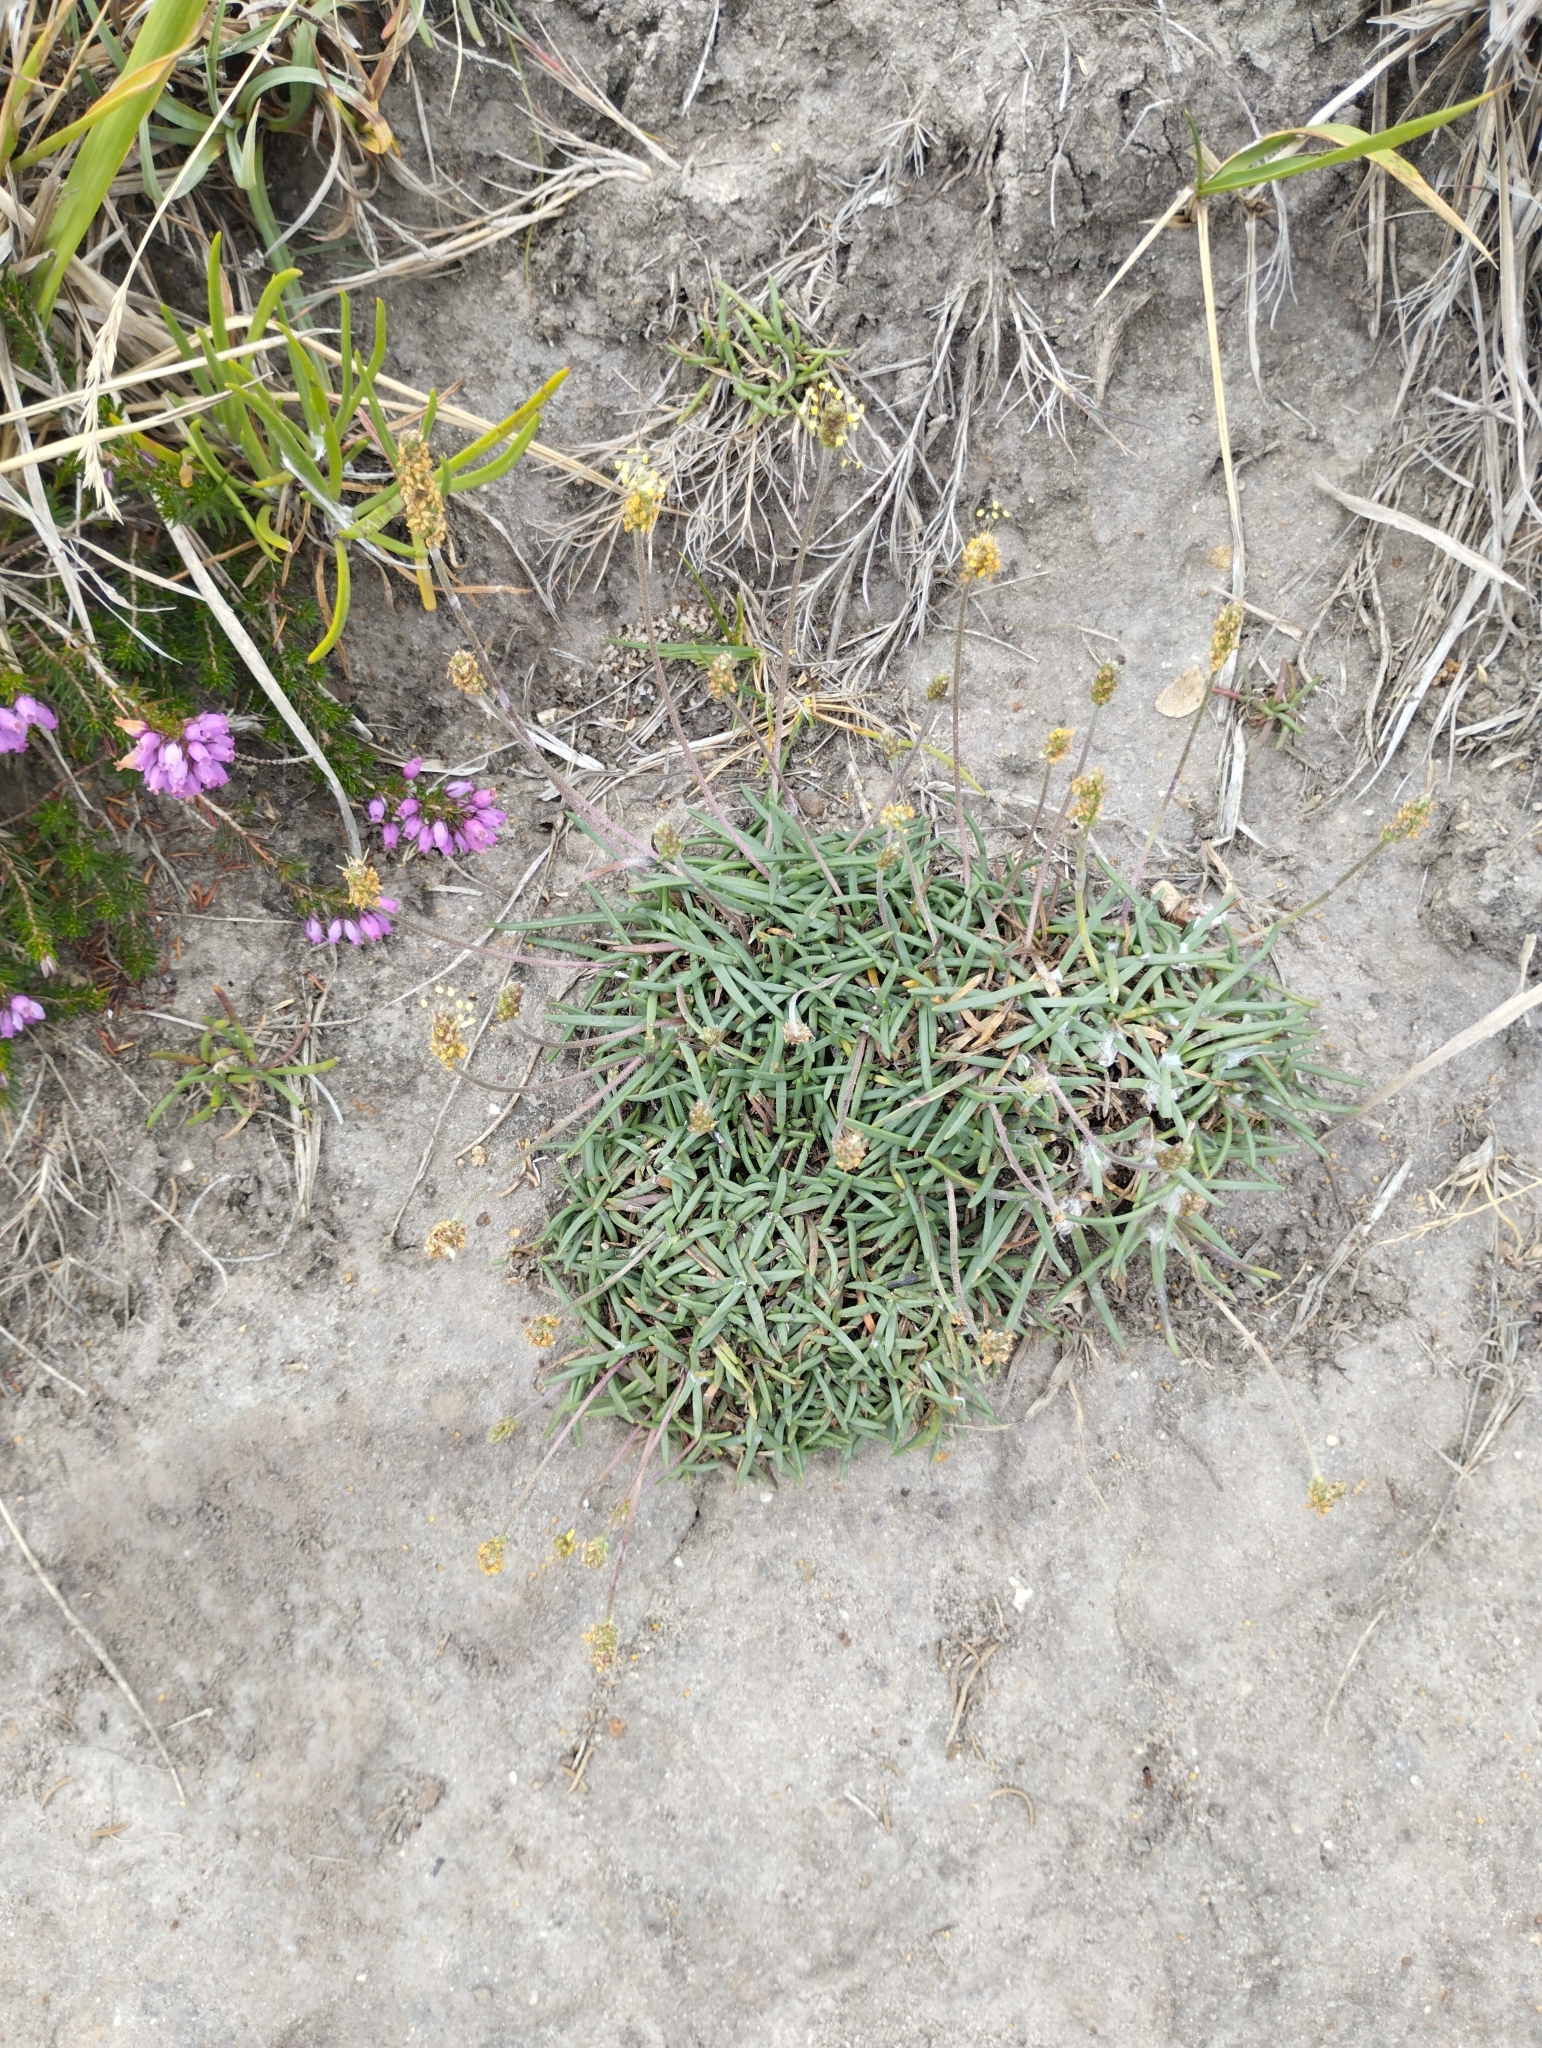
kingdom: Plantae
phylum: Tracheophyta
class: Magnoliopsida
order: Lamiales
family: Plantaginaceae
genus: Plantago
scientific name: Plantago maritima
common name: Sea plantain
